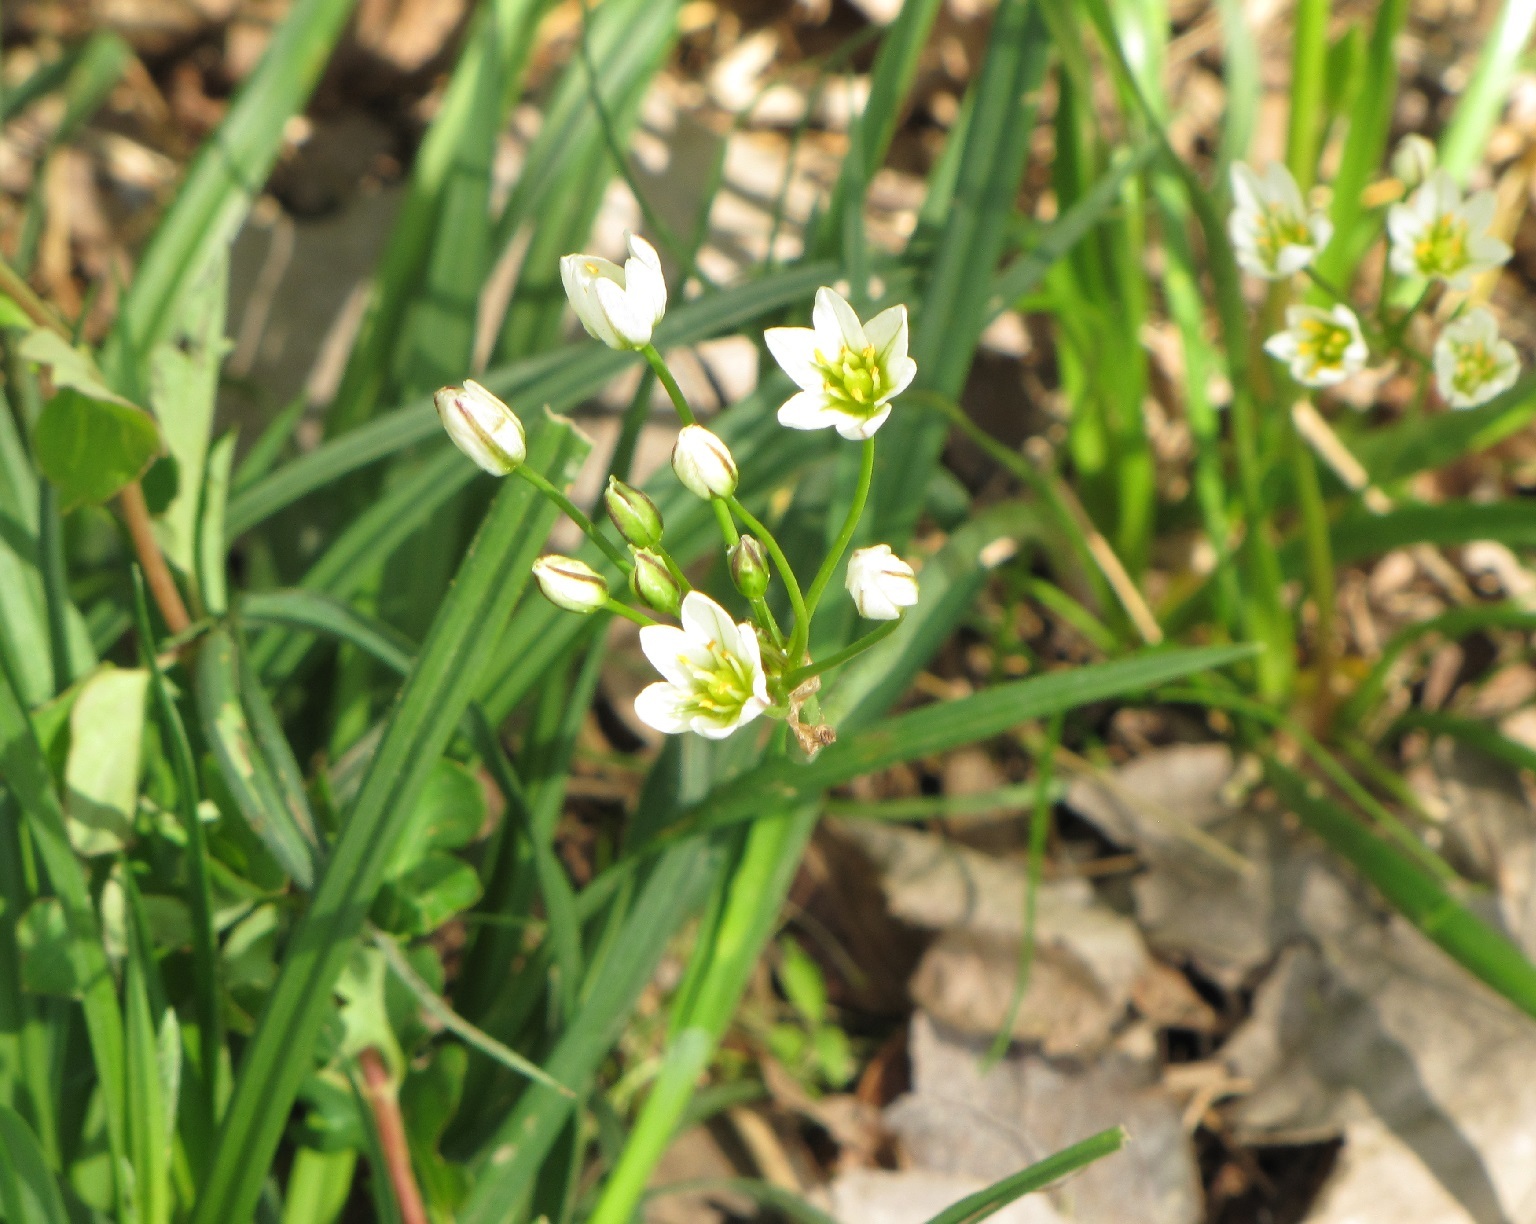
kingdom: Plantae
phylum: Tracheophyta
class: Liliopsida
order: Asparagales
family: Amaryllidaceae
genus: Nothoscordum
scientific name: Nothoscordum bivalve
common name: Crow-poison
